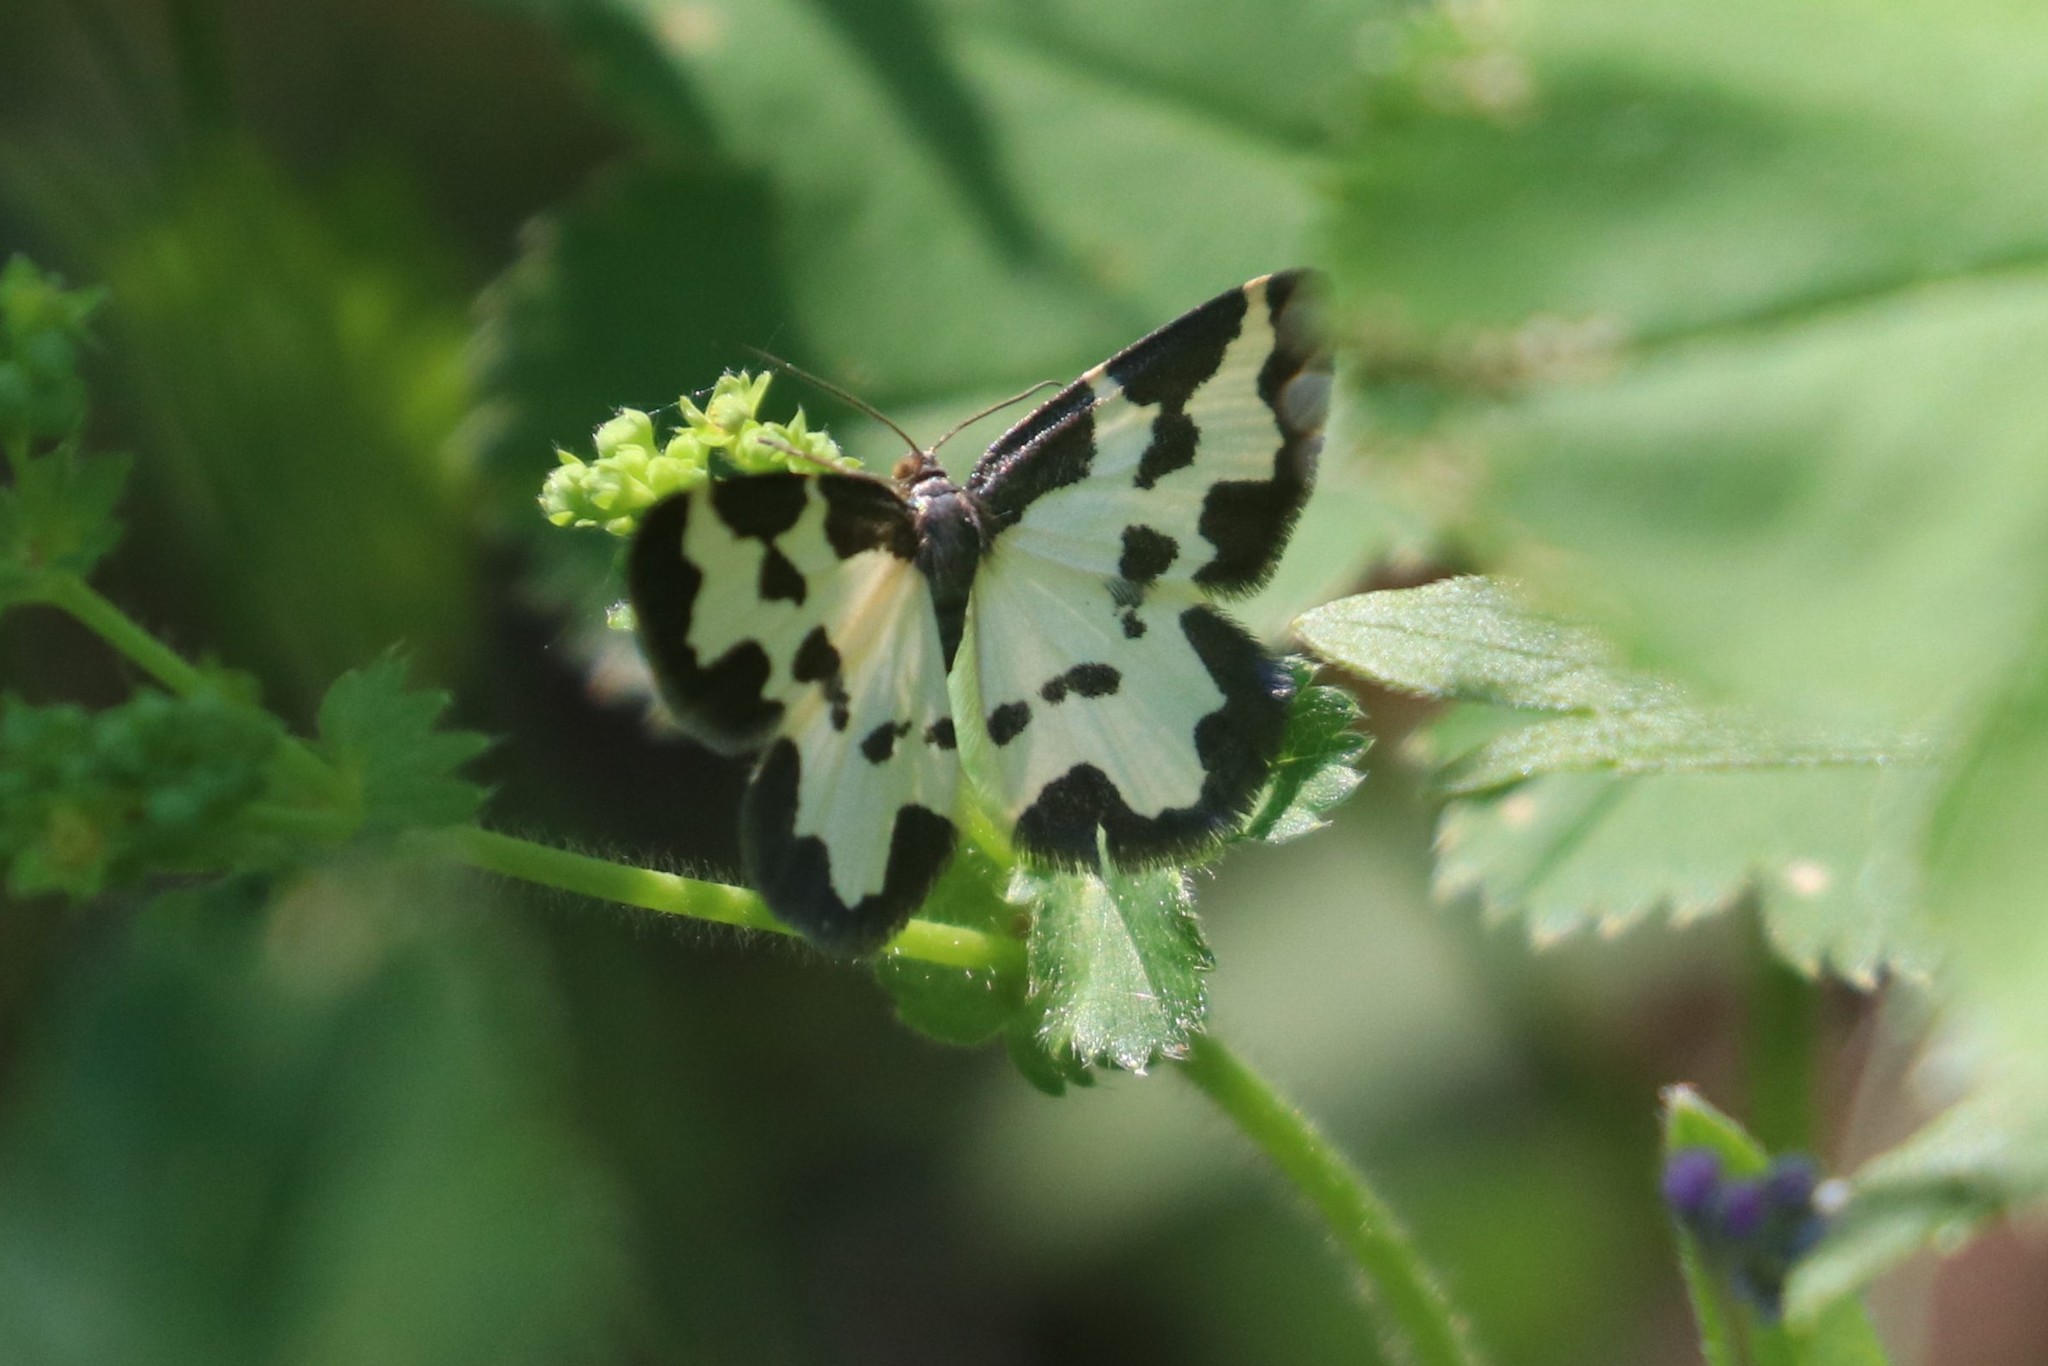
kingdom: Animalia
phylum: Arthropoda
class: Insecta
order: Lepidoptera
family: Geometridae
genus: Lomaspilis
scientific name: Lomaspilis marginata
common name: Clouded border
